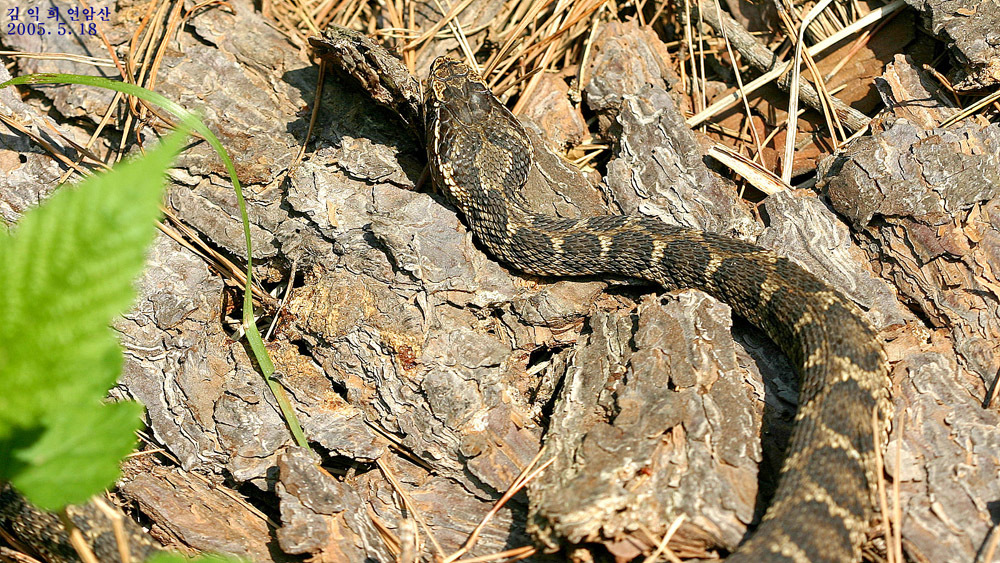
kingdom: Animalia
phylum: Chordata
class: Squamata
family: Viperidae
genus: Gloydius
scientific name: Gloydius brevicauda
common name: Short-tailed mamushi
